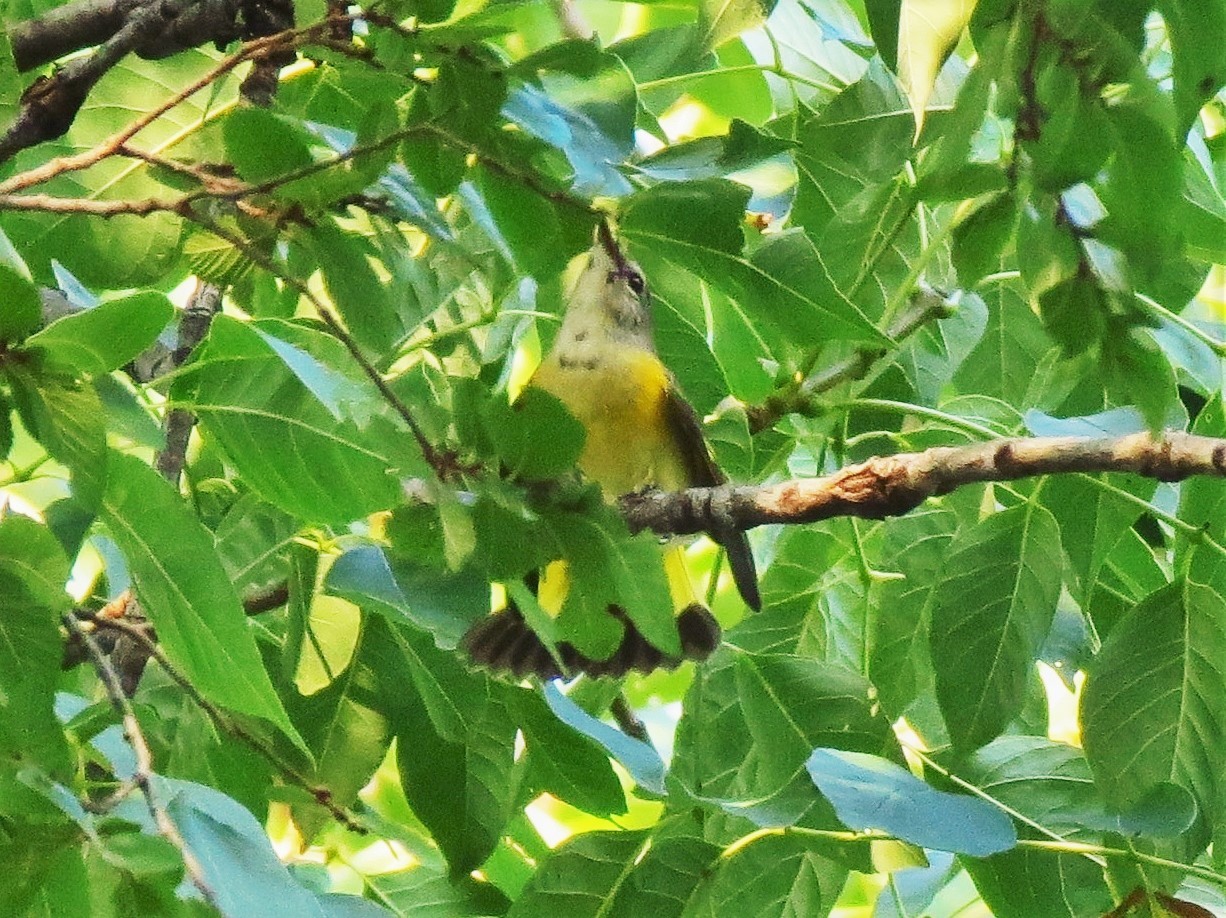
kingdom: Animalia
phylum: Chordata
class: Aves
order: Passeriformes
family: Parulidae
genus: Setophaga
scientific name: Setophaga ruticilla
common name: American redstart
